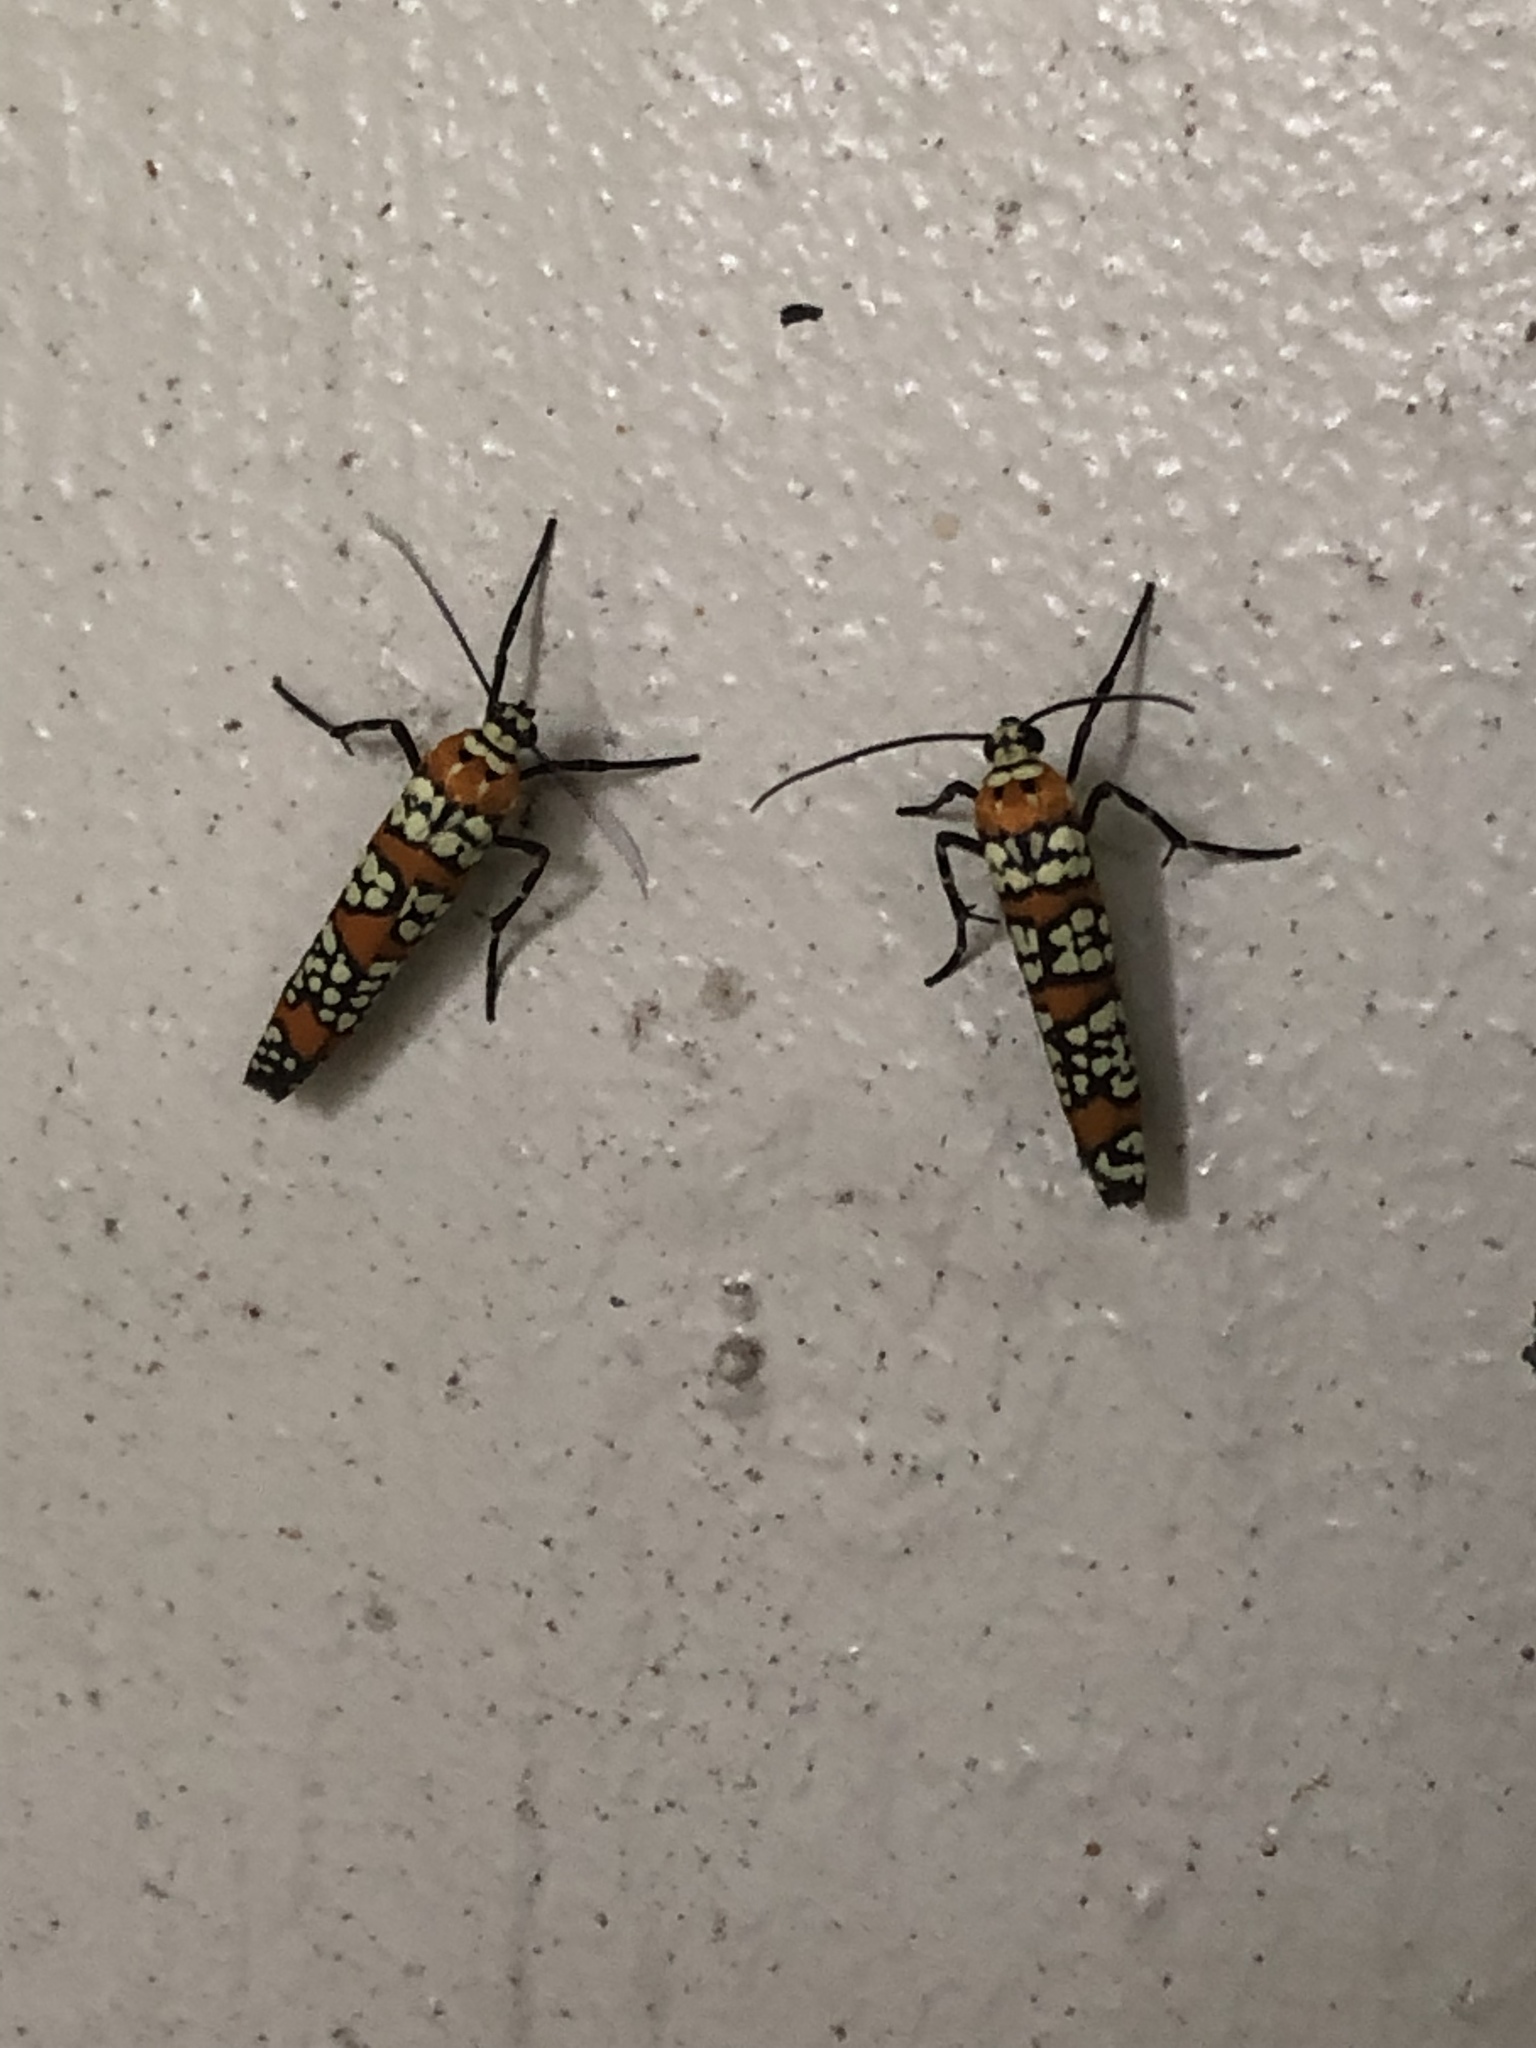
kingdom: Animalia
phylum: Arthropoda
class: Insecta
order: Lepidoptera
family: Attevidae
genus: Atteva
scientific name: Atteva punctella
